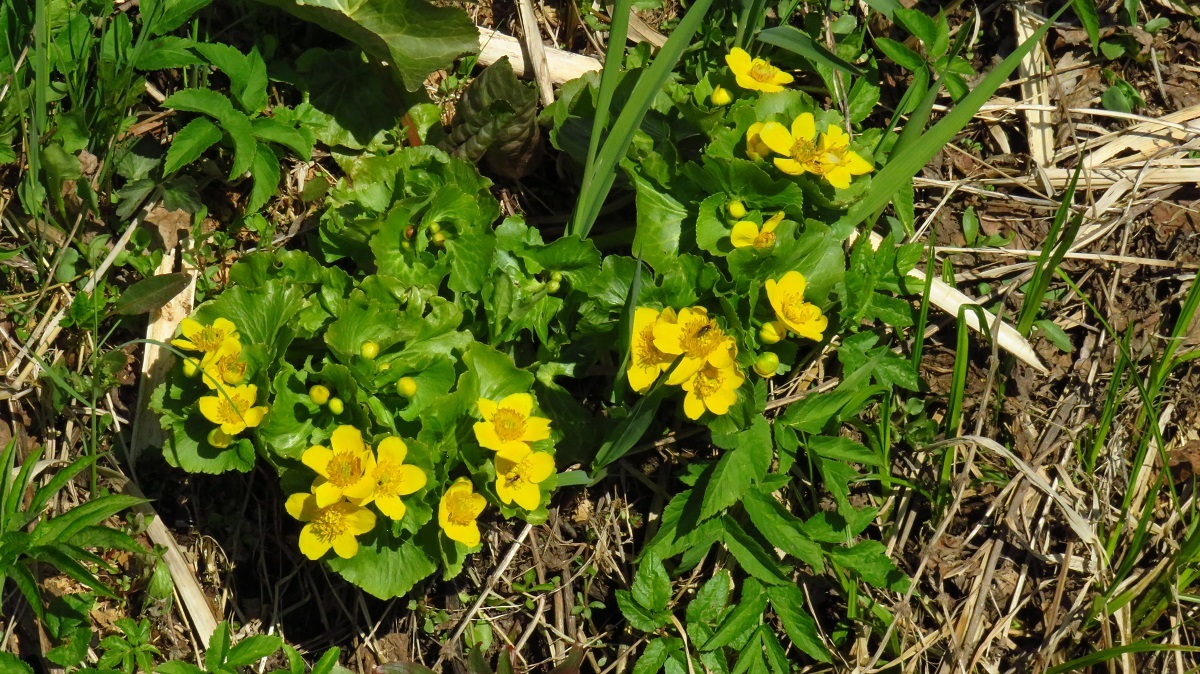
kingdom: Plantae
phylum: Tracheophyta
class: Magnoliopsida
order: Ranunculales
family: Ranunculaceae
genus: Caltha
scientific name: Caltha palustris
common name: Marsh marigold
